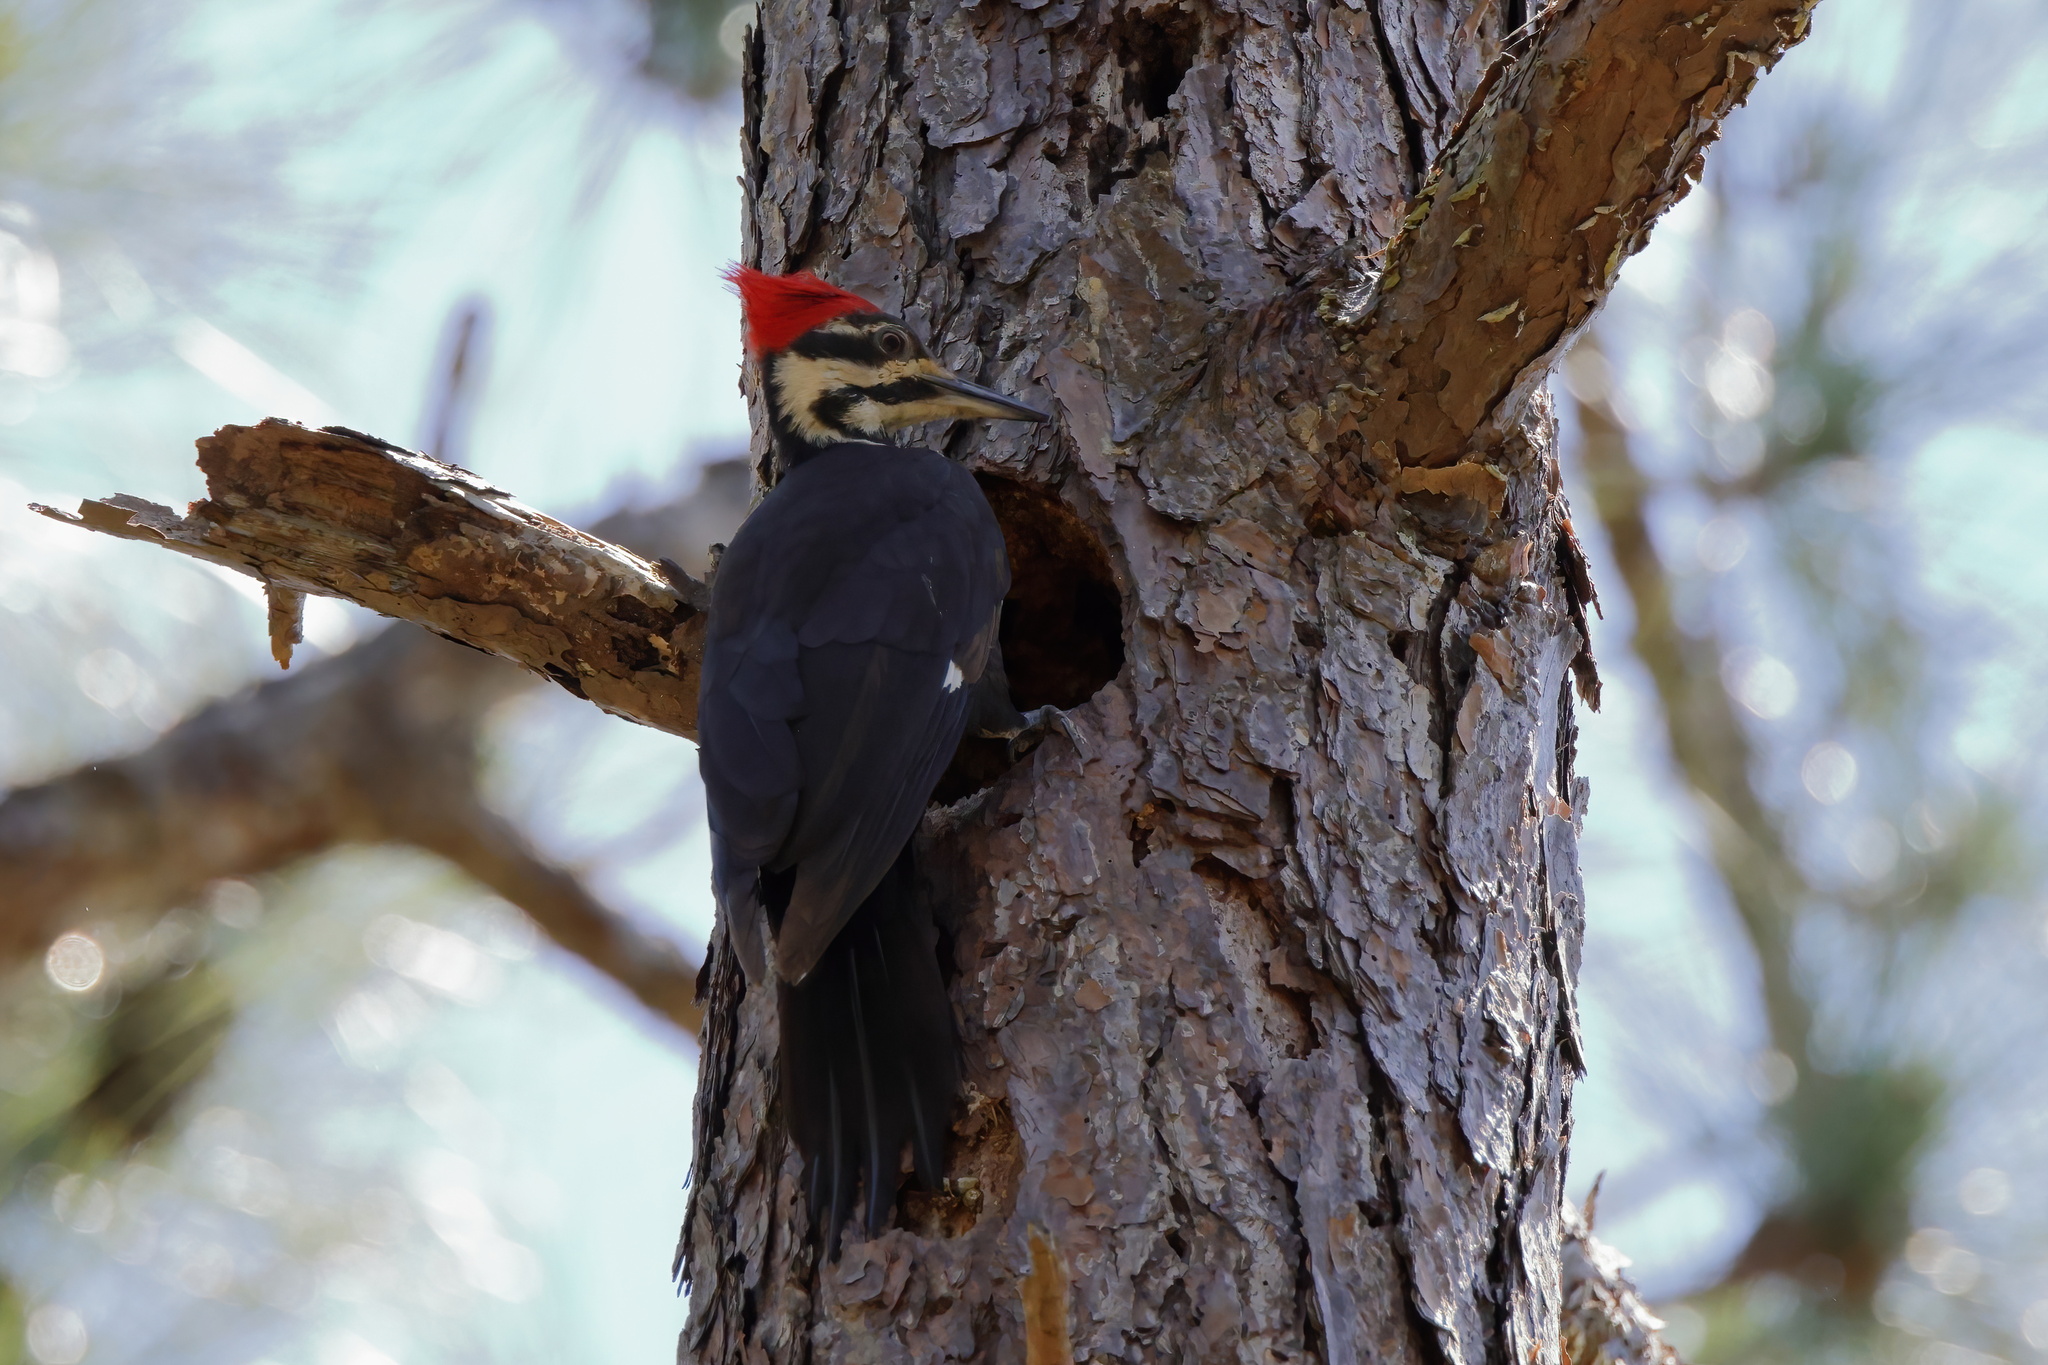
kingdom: Animalia
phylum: Chordata
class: Aves
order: Piciformes
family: Picidae
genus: Dryocopus
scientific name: Dryocopus pileatus
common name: Pileated woodpecker
